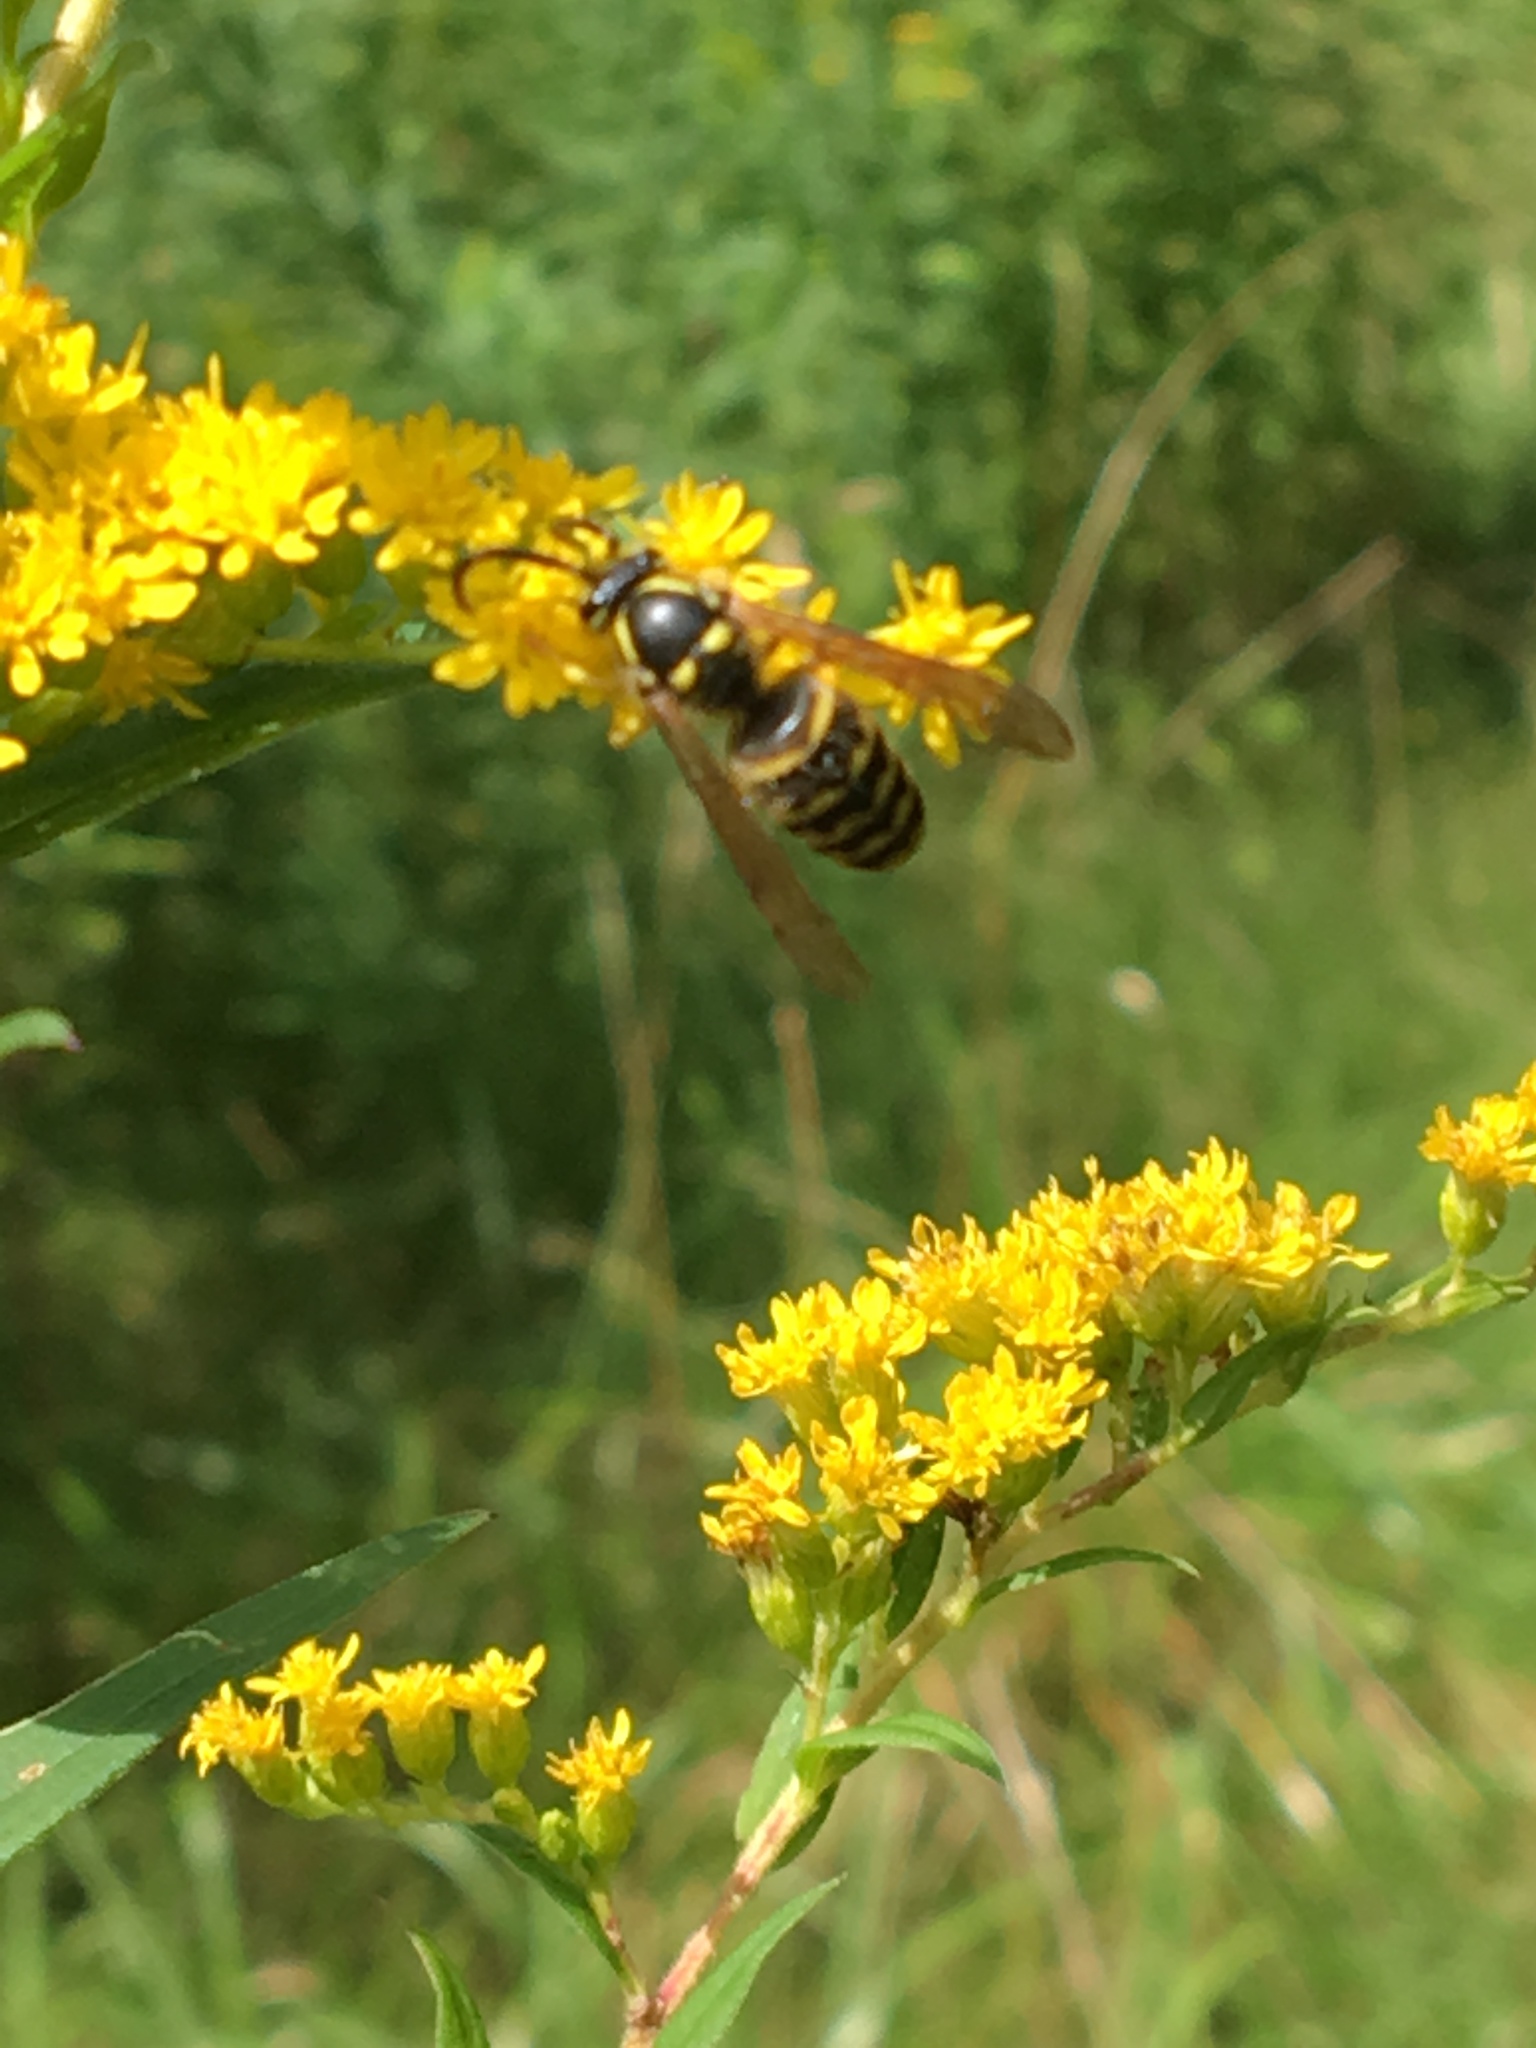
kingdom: Animalia
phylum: Arthropoda
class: Insecta
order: Hymenoptera
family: Vespidae
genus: Dolichovespula
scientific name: Dolichovespula arenaria
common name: Aerial yellowjacket
